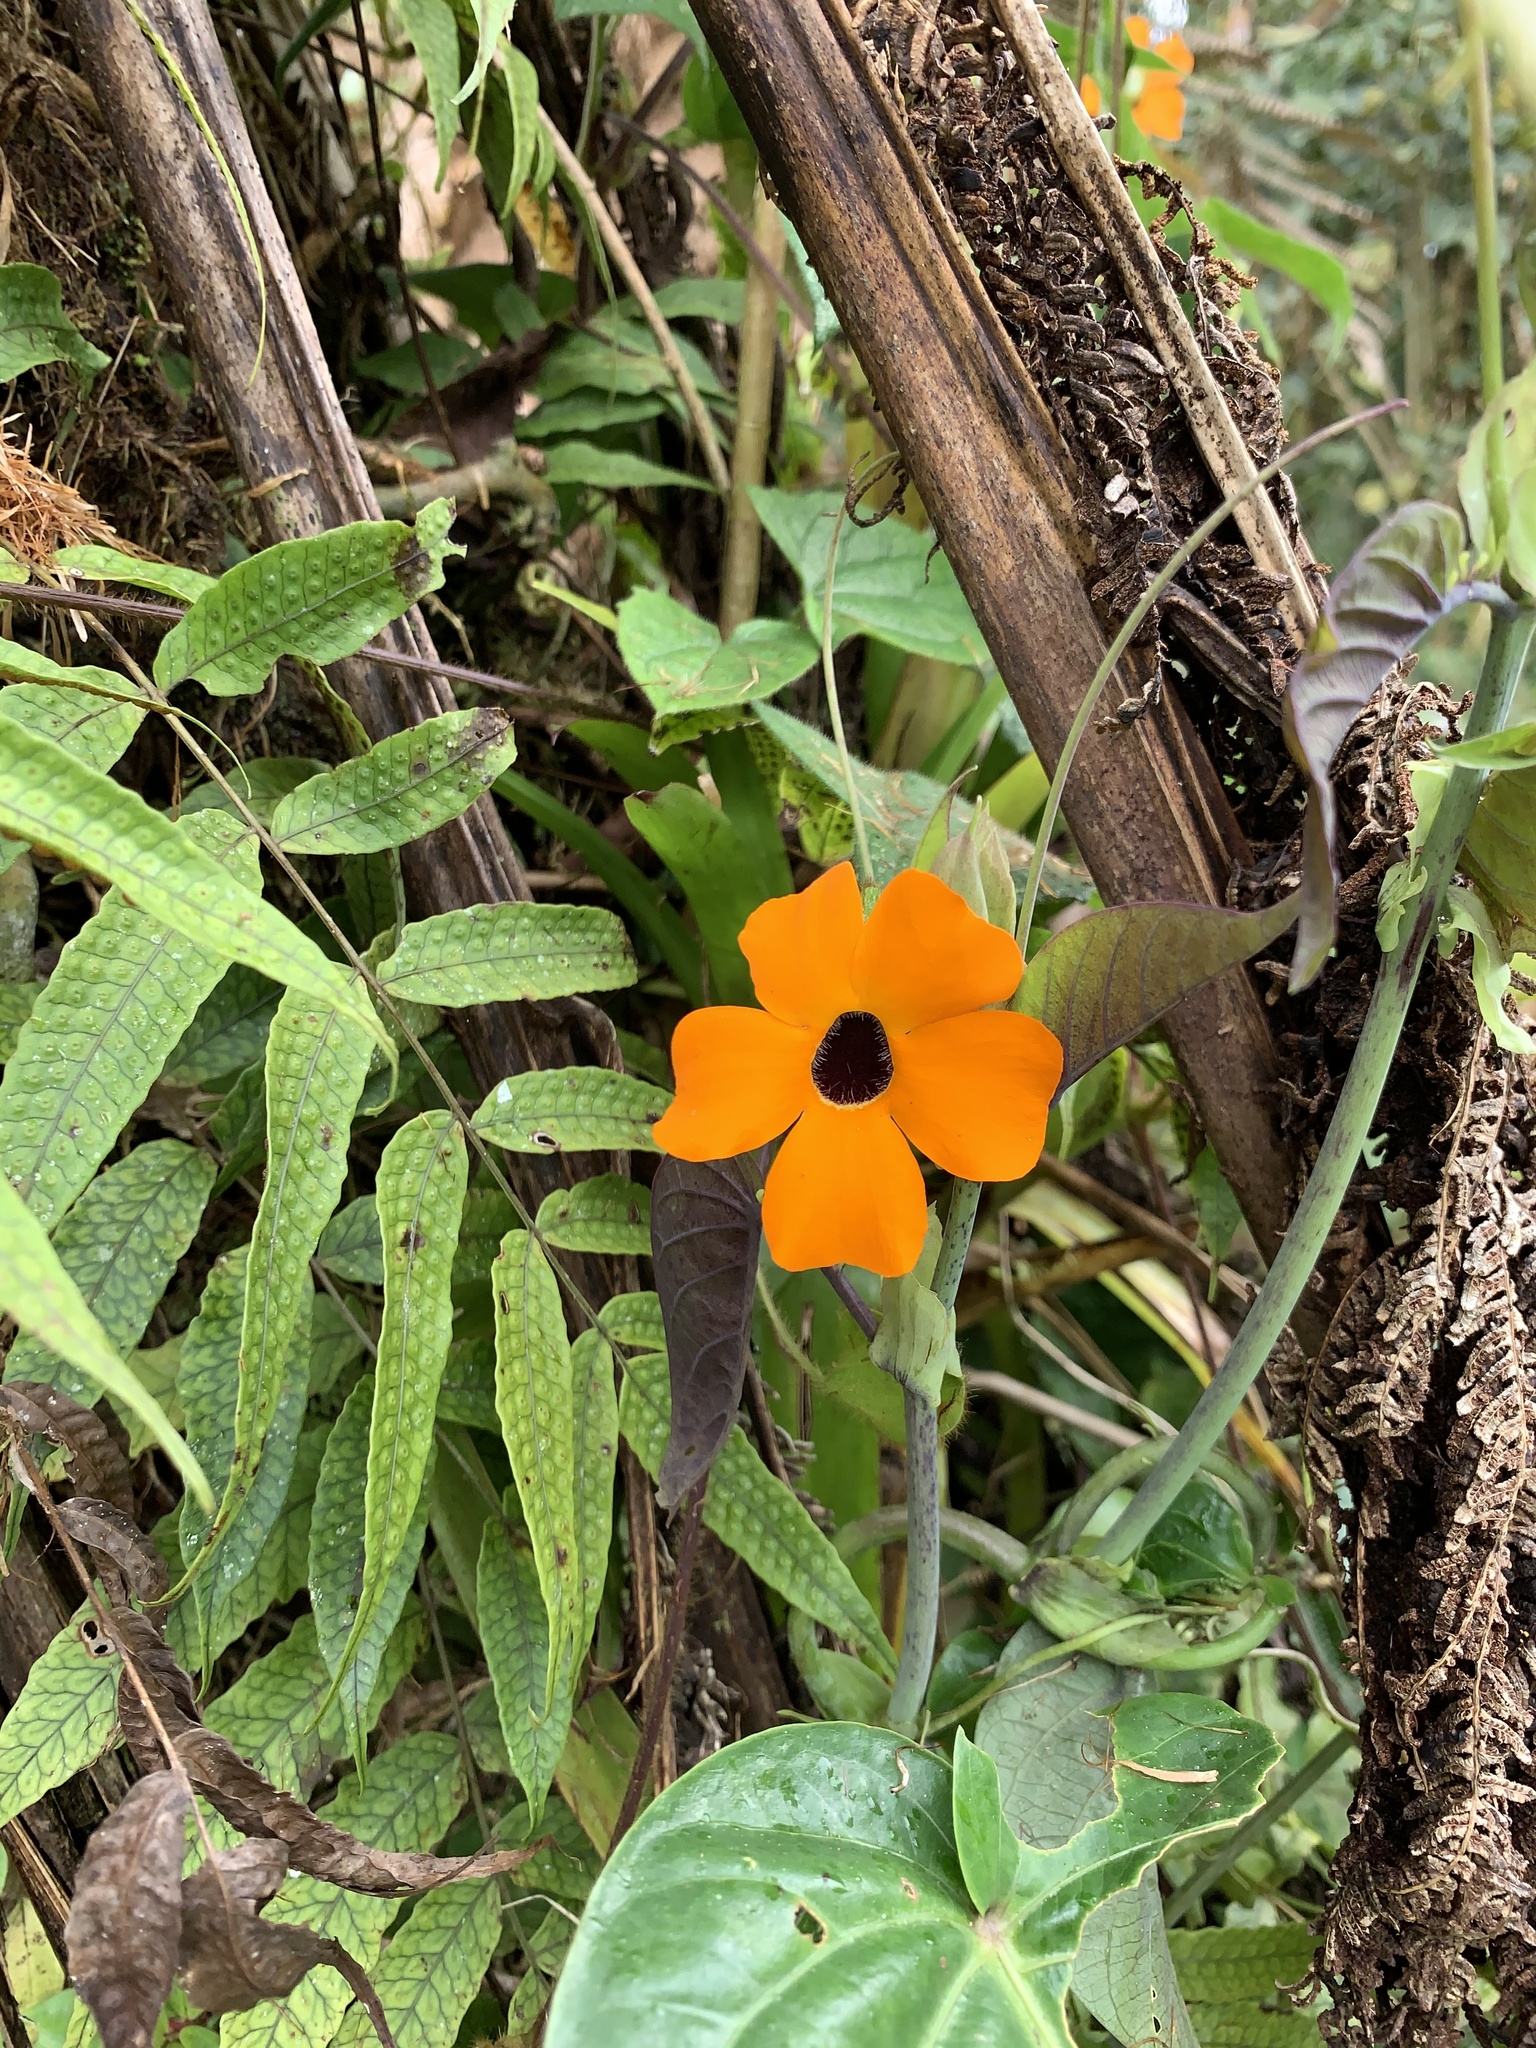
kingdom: Plantae
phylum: Tracheophyta
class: Magnoliopsida
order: Lamiales
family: Acanthaceae
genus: Thunbergia
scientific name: Thunbergia alata
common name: Blackeyed susan vine
